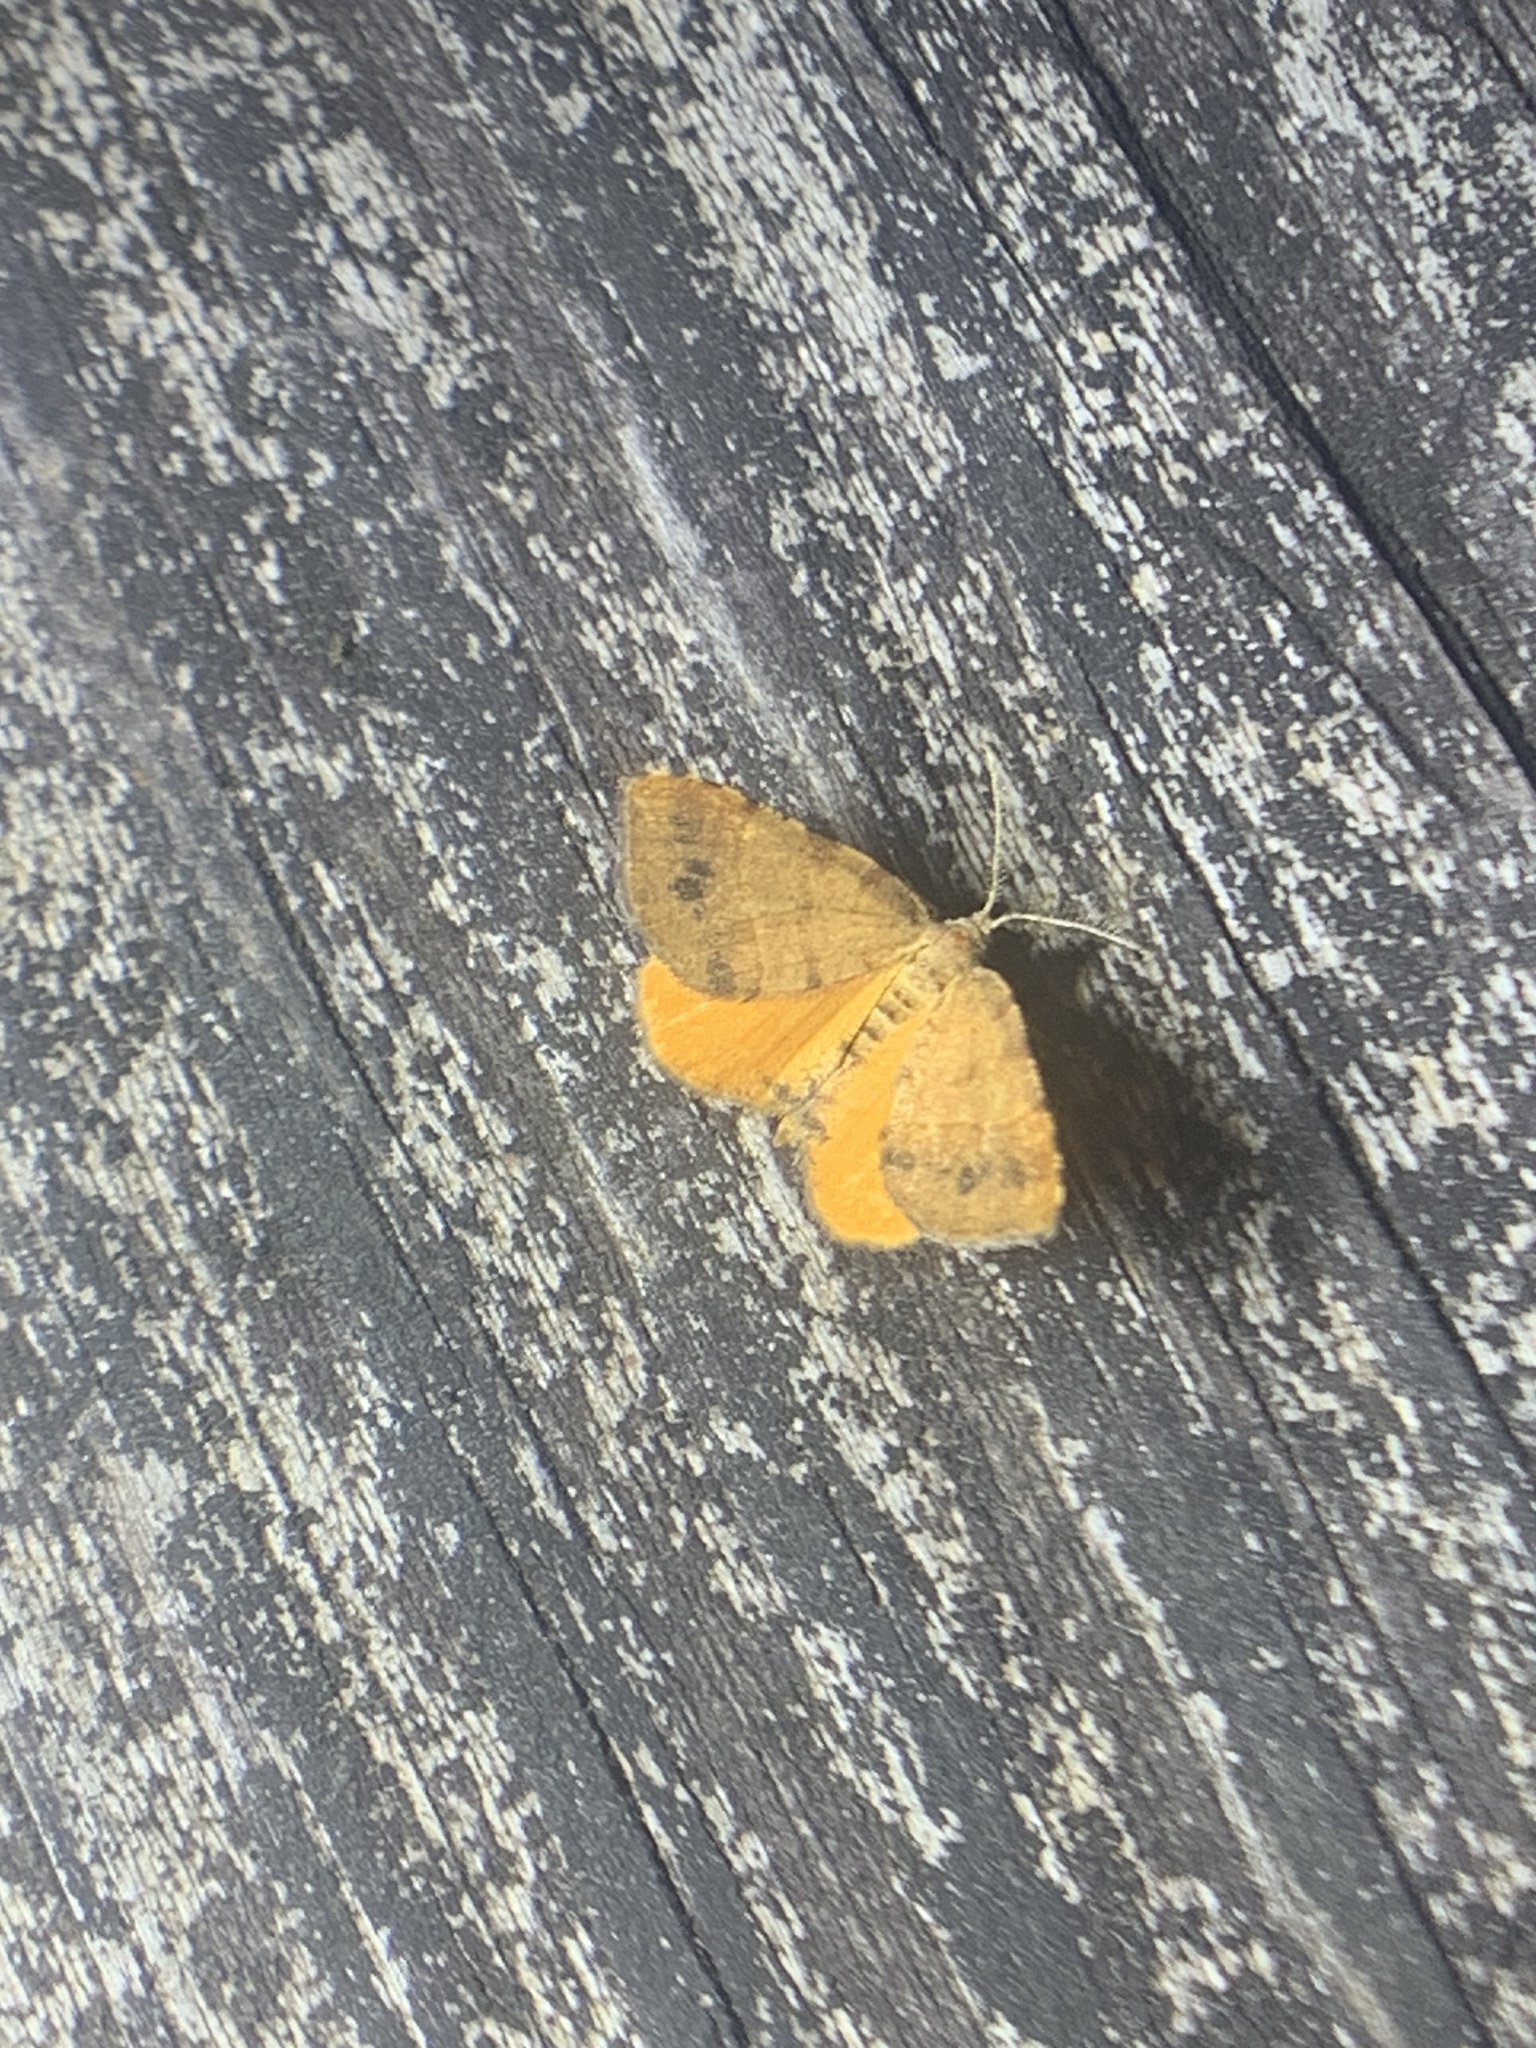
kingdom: Animalia
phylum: Arthropoda
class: Insecta
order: Lepidoptera
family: Geometridae
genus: Mellilla
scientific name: Mellilla xanthometata
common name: Orange wing moth
